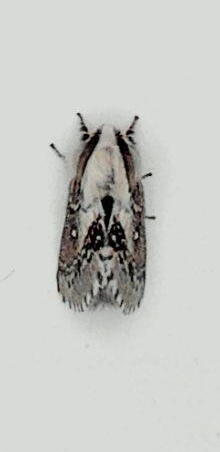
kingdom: Animalia
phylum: Arthropoda
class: Insecta
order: Lepidoptera
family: Lasiocampidae
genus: Porela
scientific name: Porela delineata
